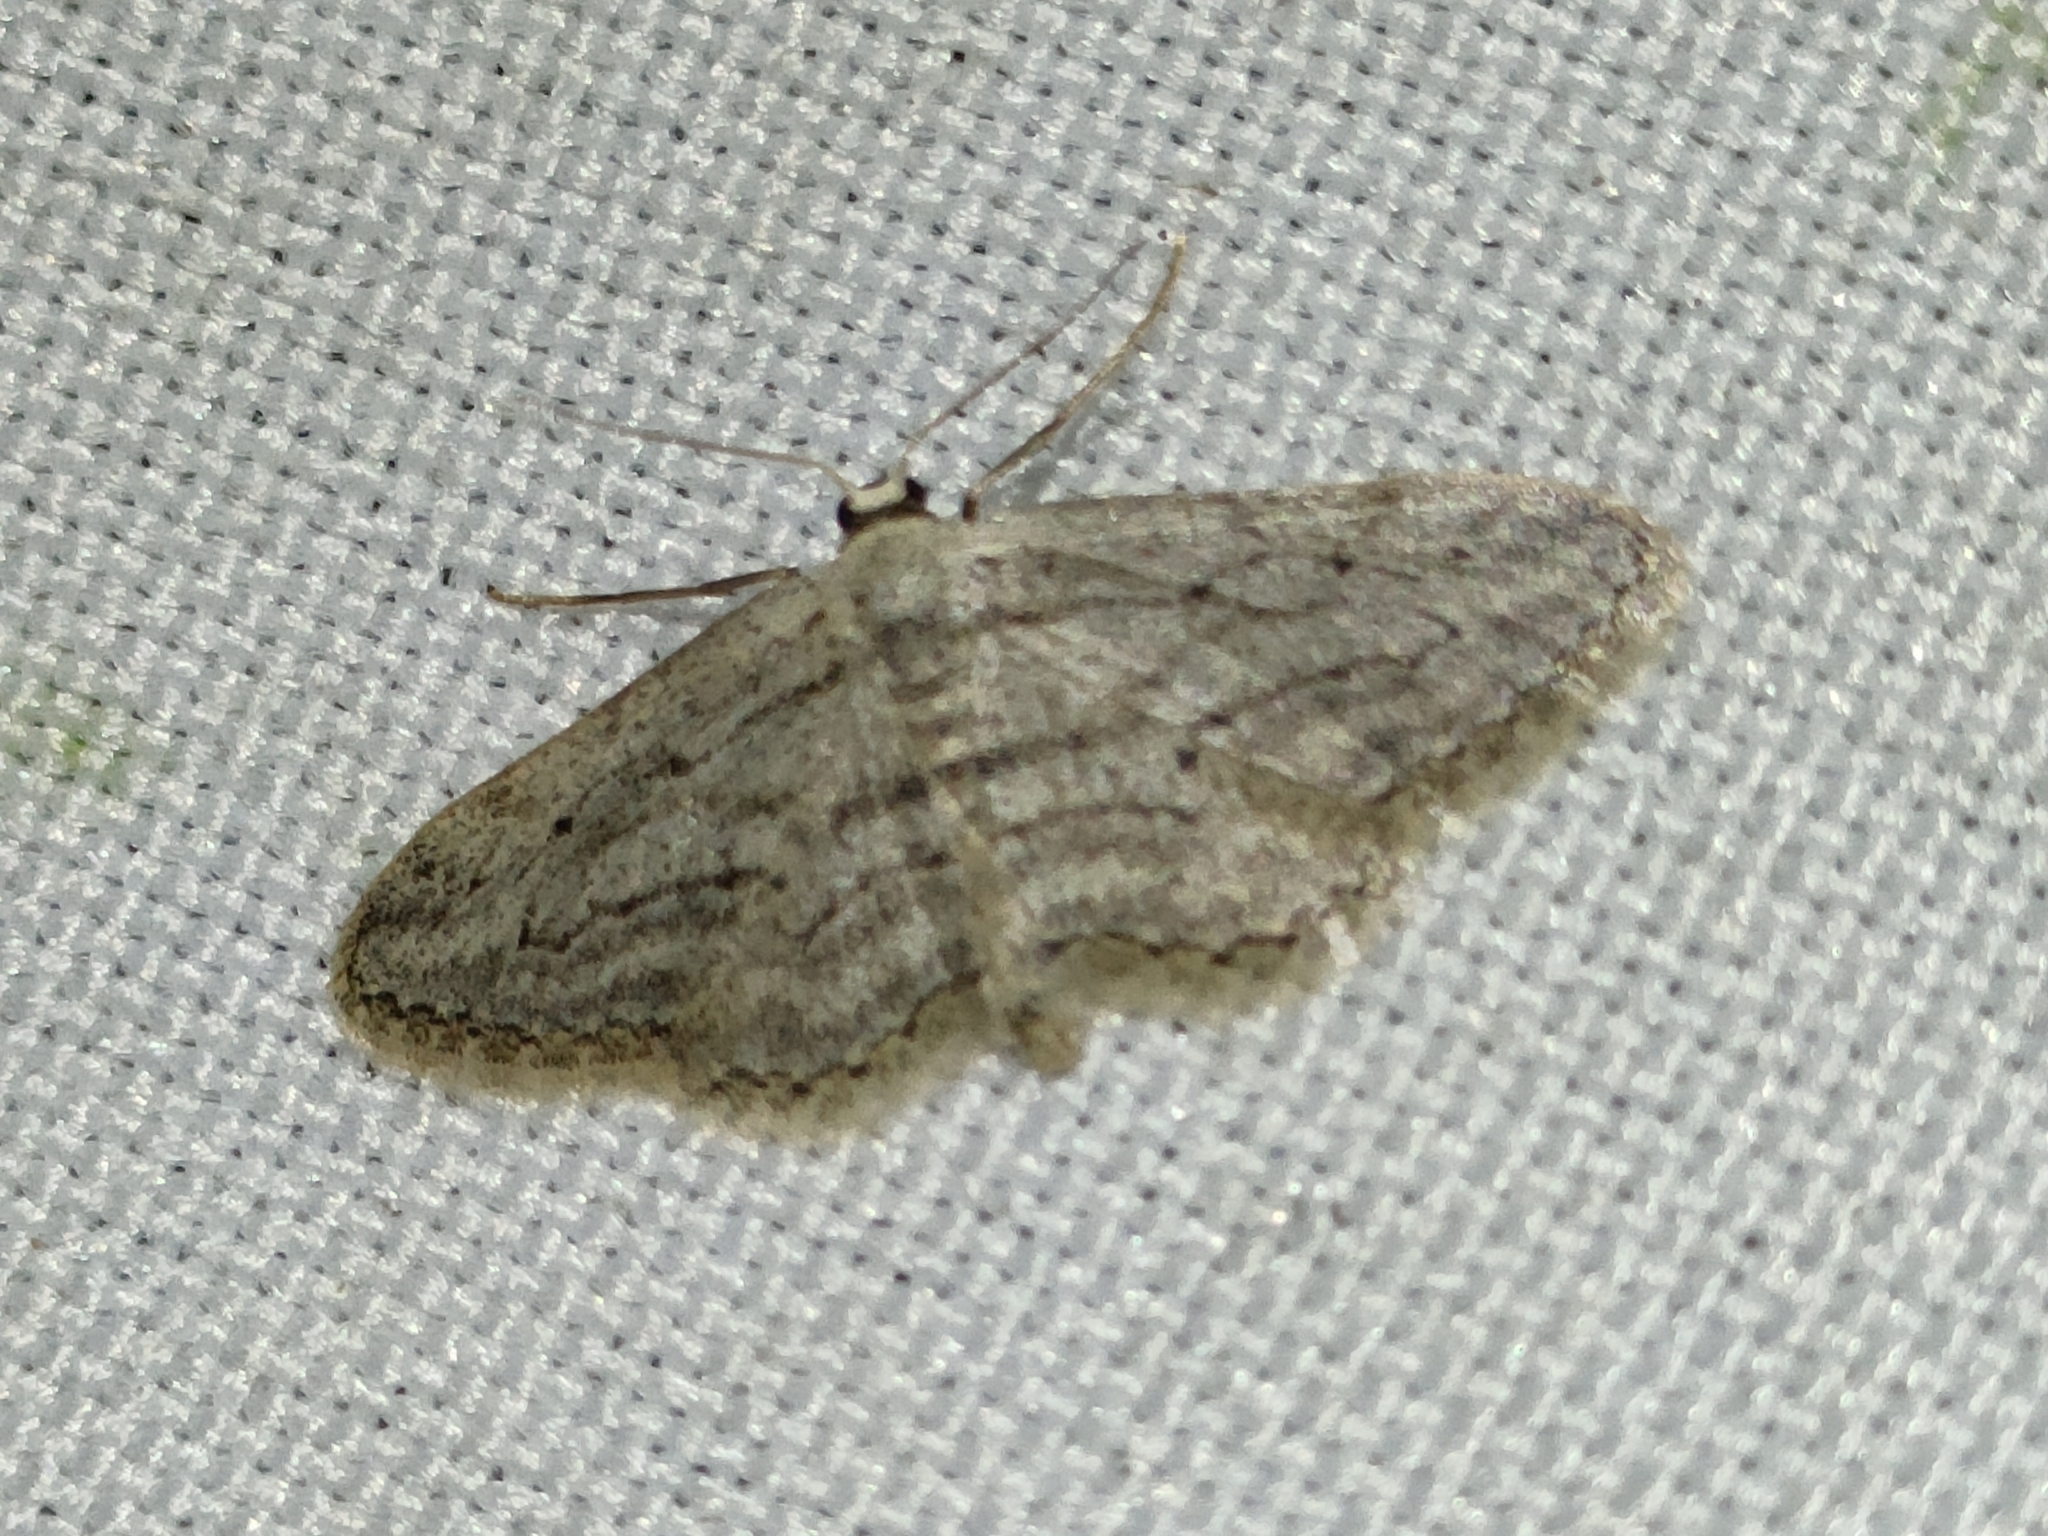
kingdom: Animalia
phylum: Arthropoda
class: Insecta
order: Lepidoptera
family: Geometridae
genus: Idaea
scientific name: Idaea calunetaria
